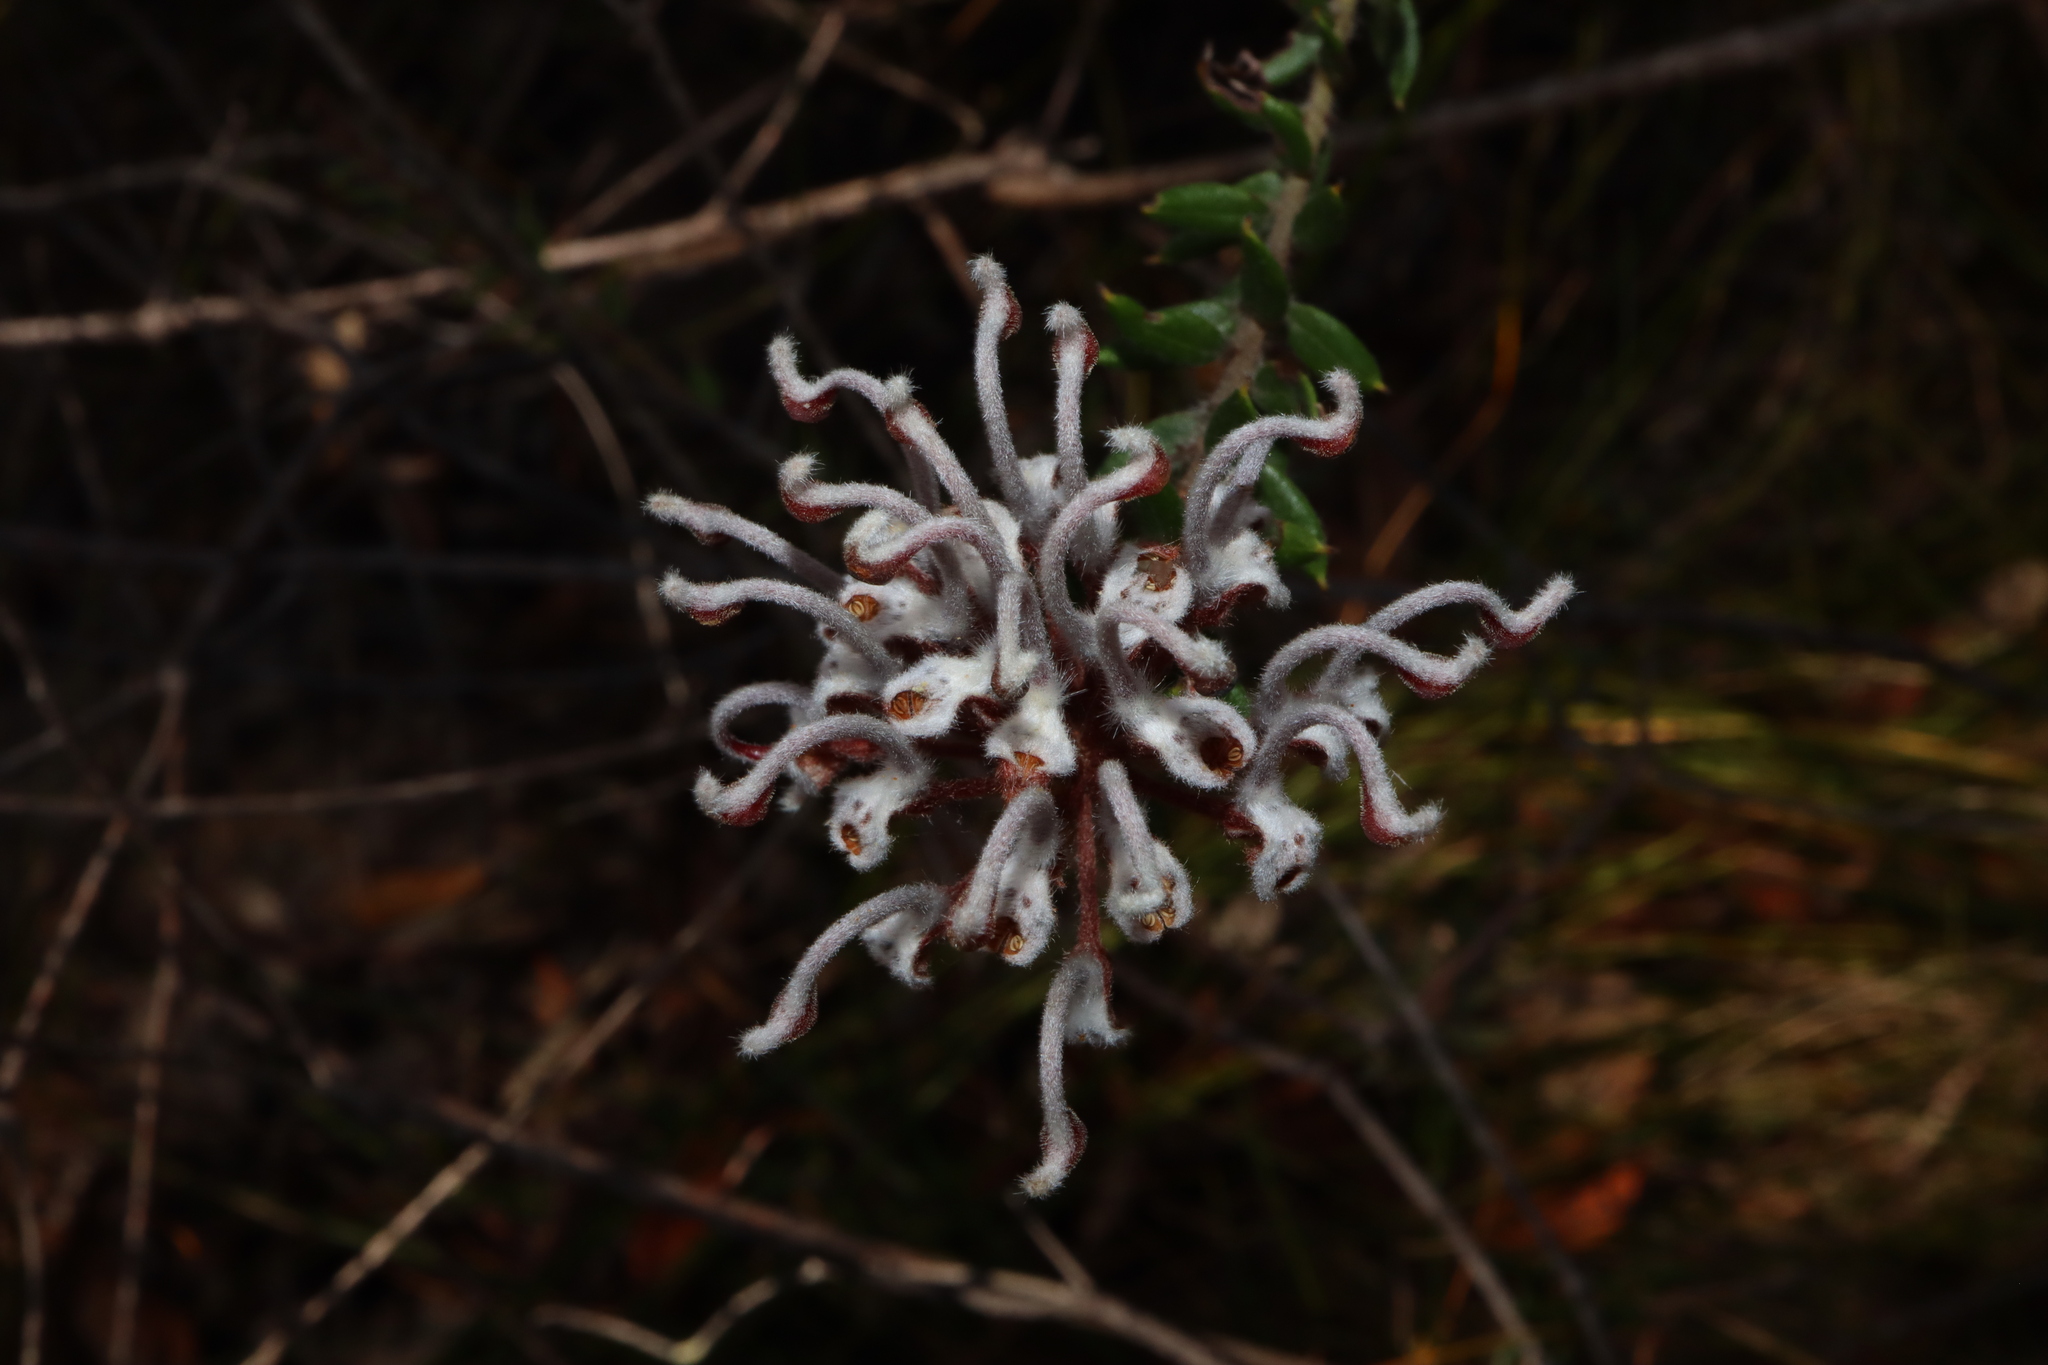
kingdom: Plantae
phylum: Tracheophyta
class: Magnoliopsida
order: Proteales
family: Proteaceae
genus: Grevillea
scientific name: Grevillea buxifolia
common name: Grey spiderflower
